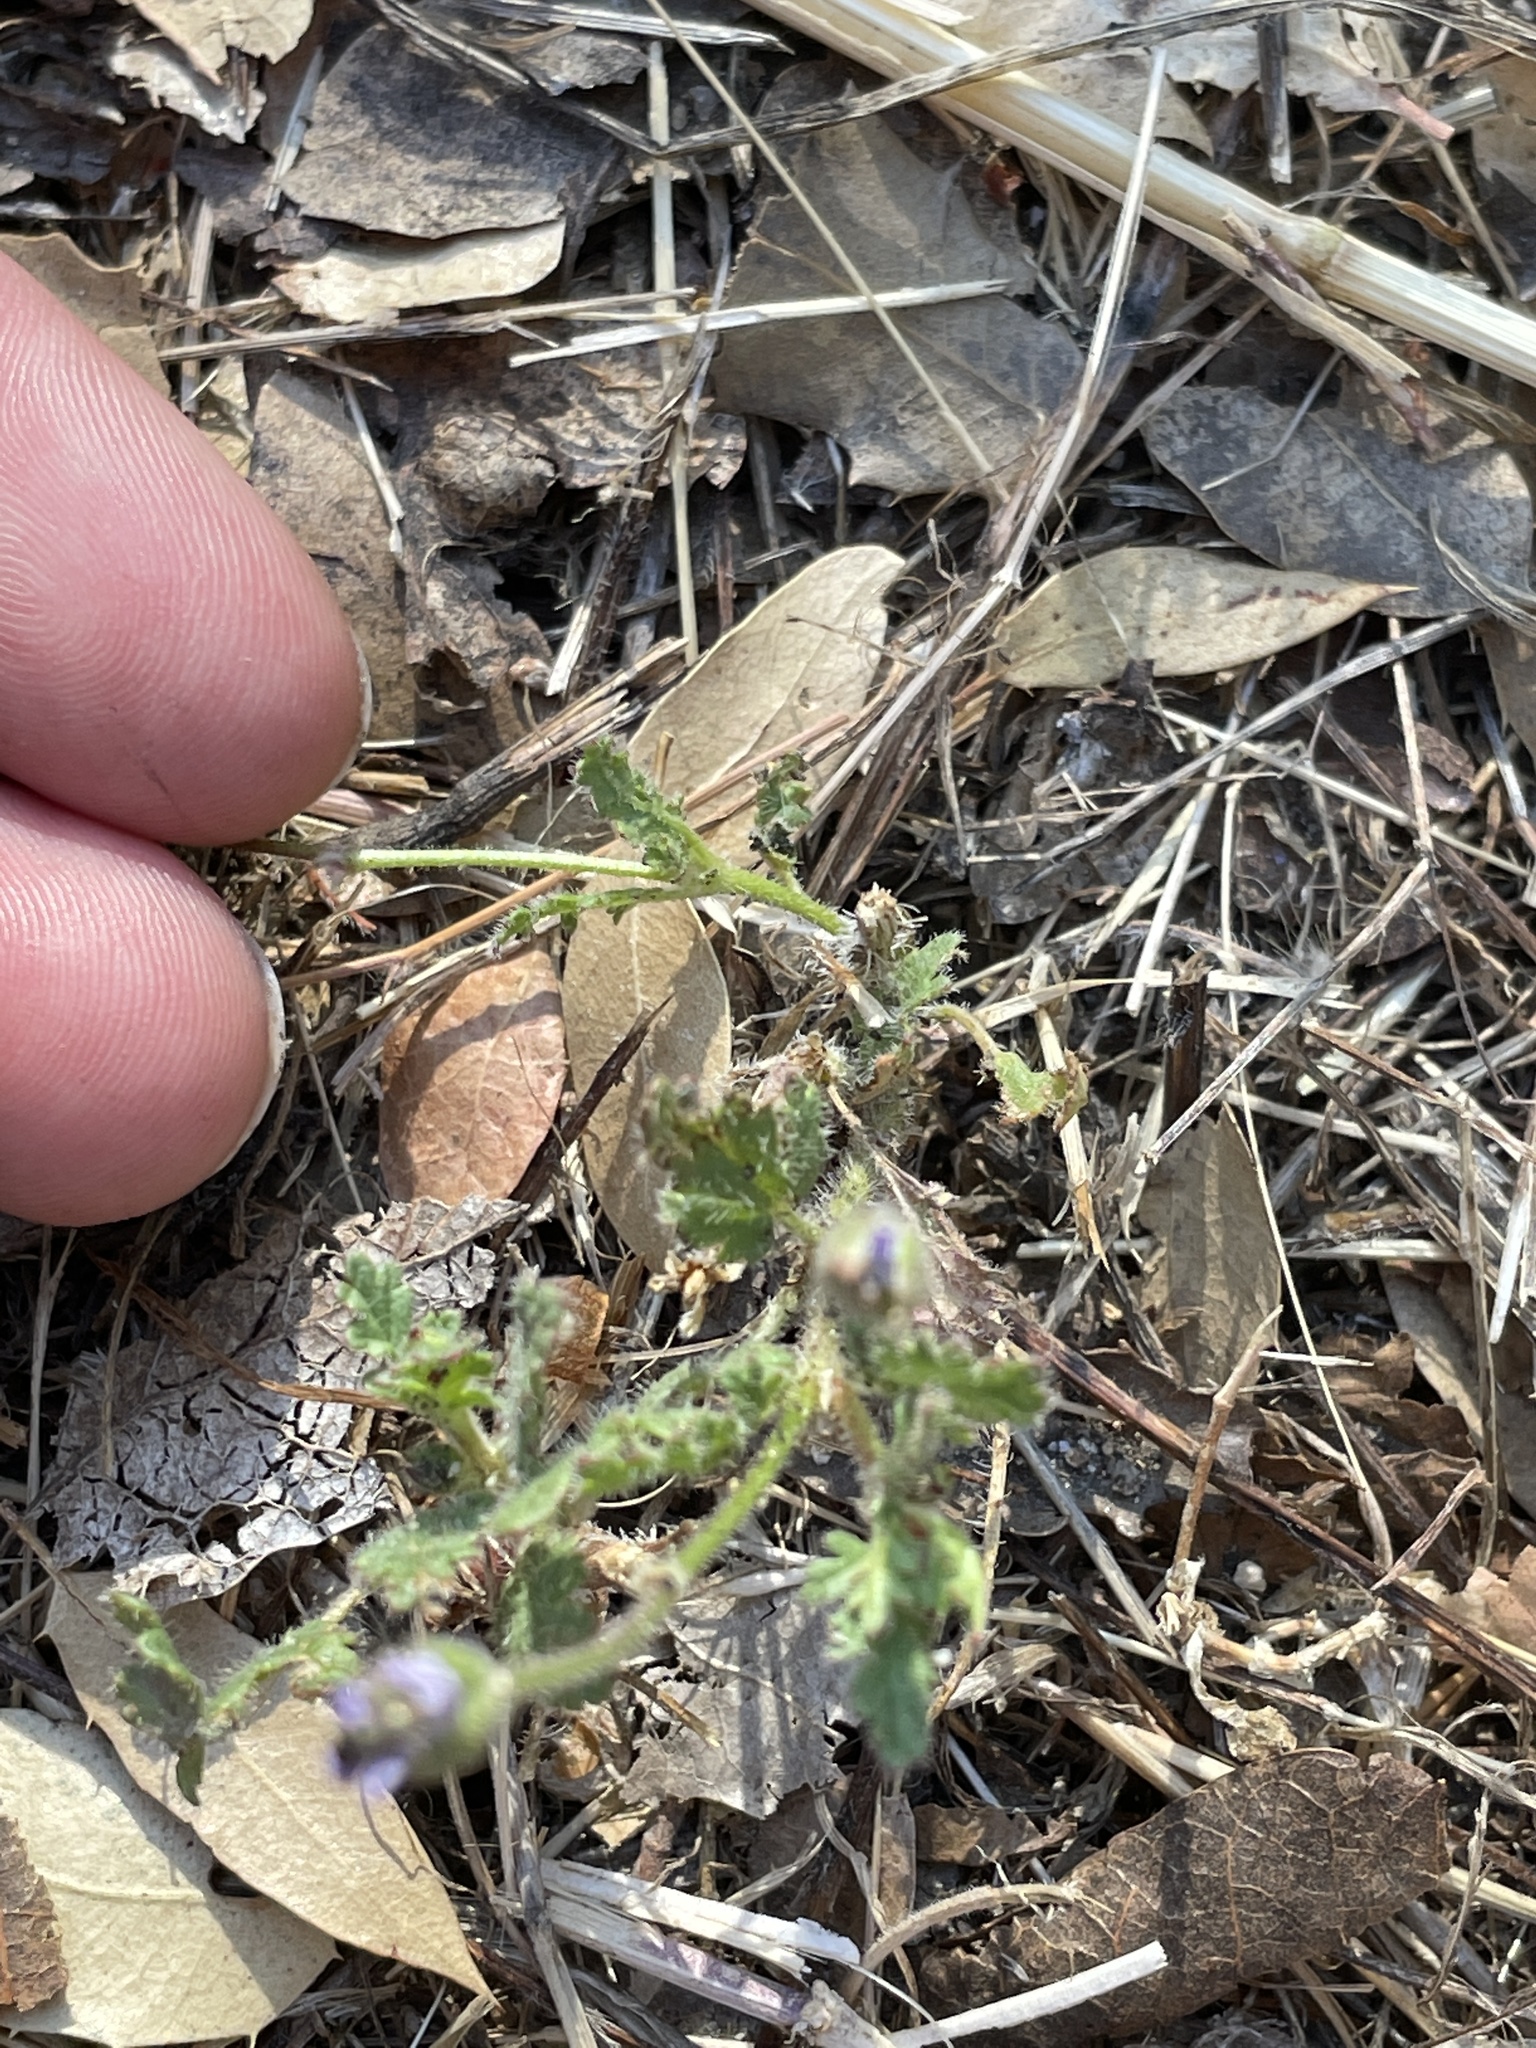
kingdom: Plantae
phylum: Tracheophyta
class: Magnoliopsida
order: Geraniales
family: Geraniaceae
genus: Erodium
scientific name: Erodium botrys
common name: Mediterranean stork's-bill
